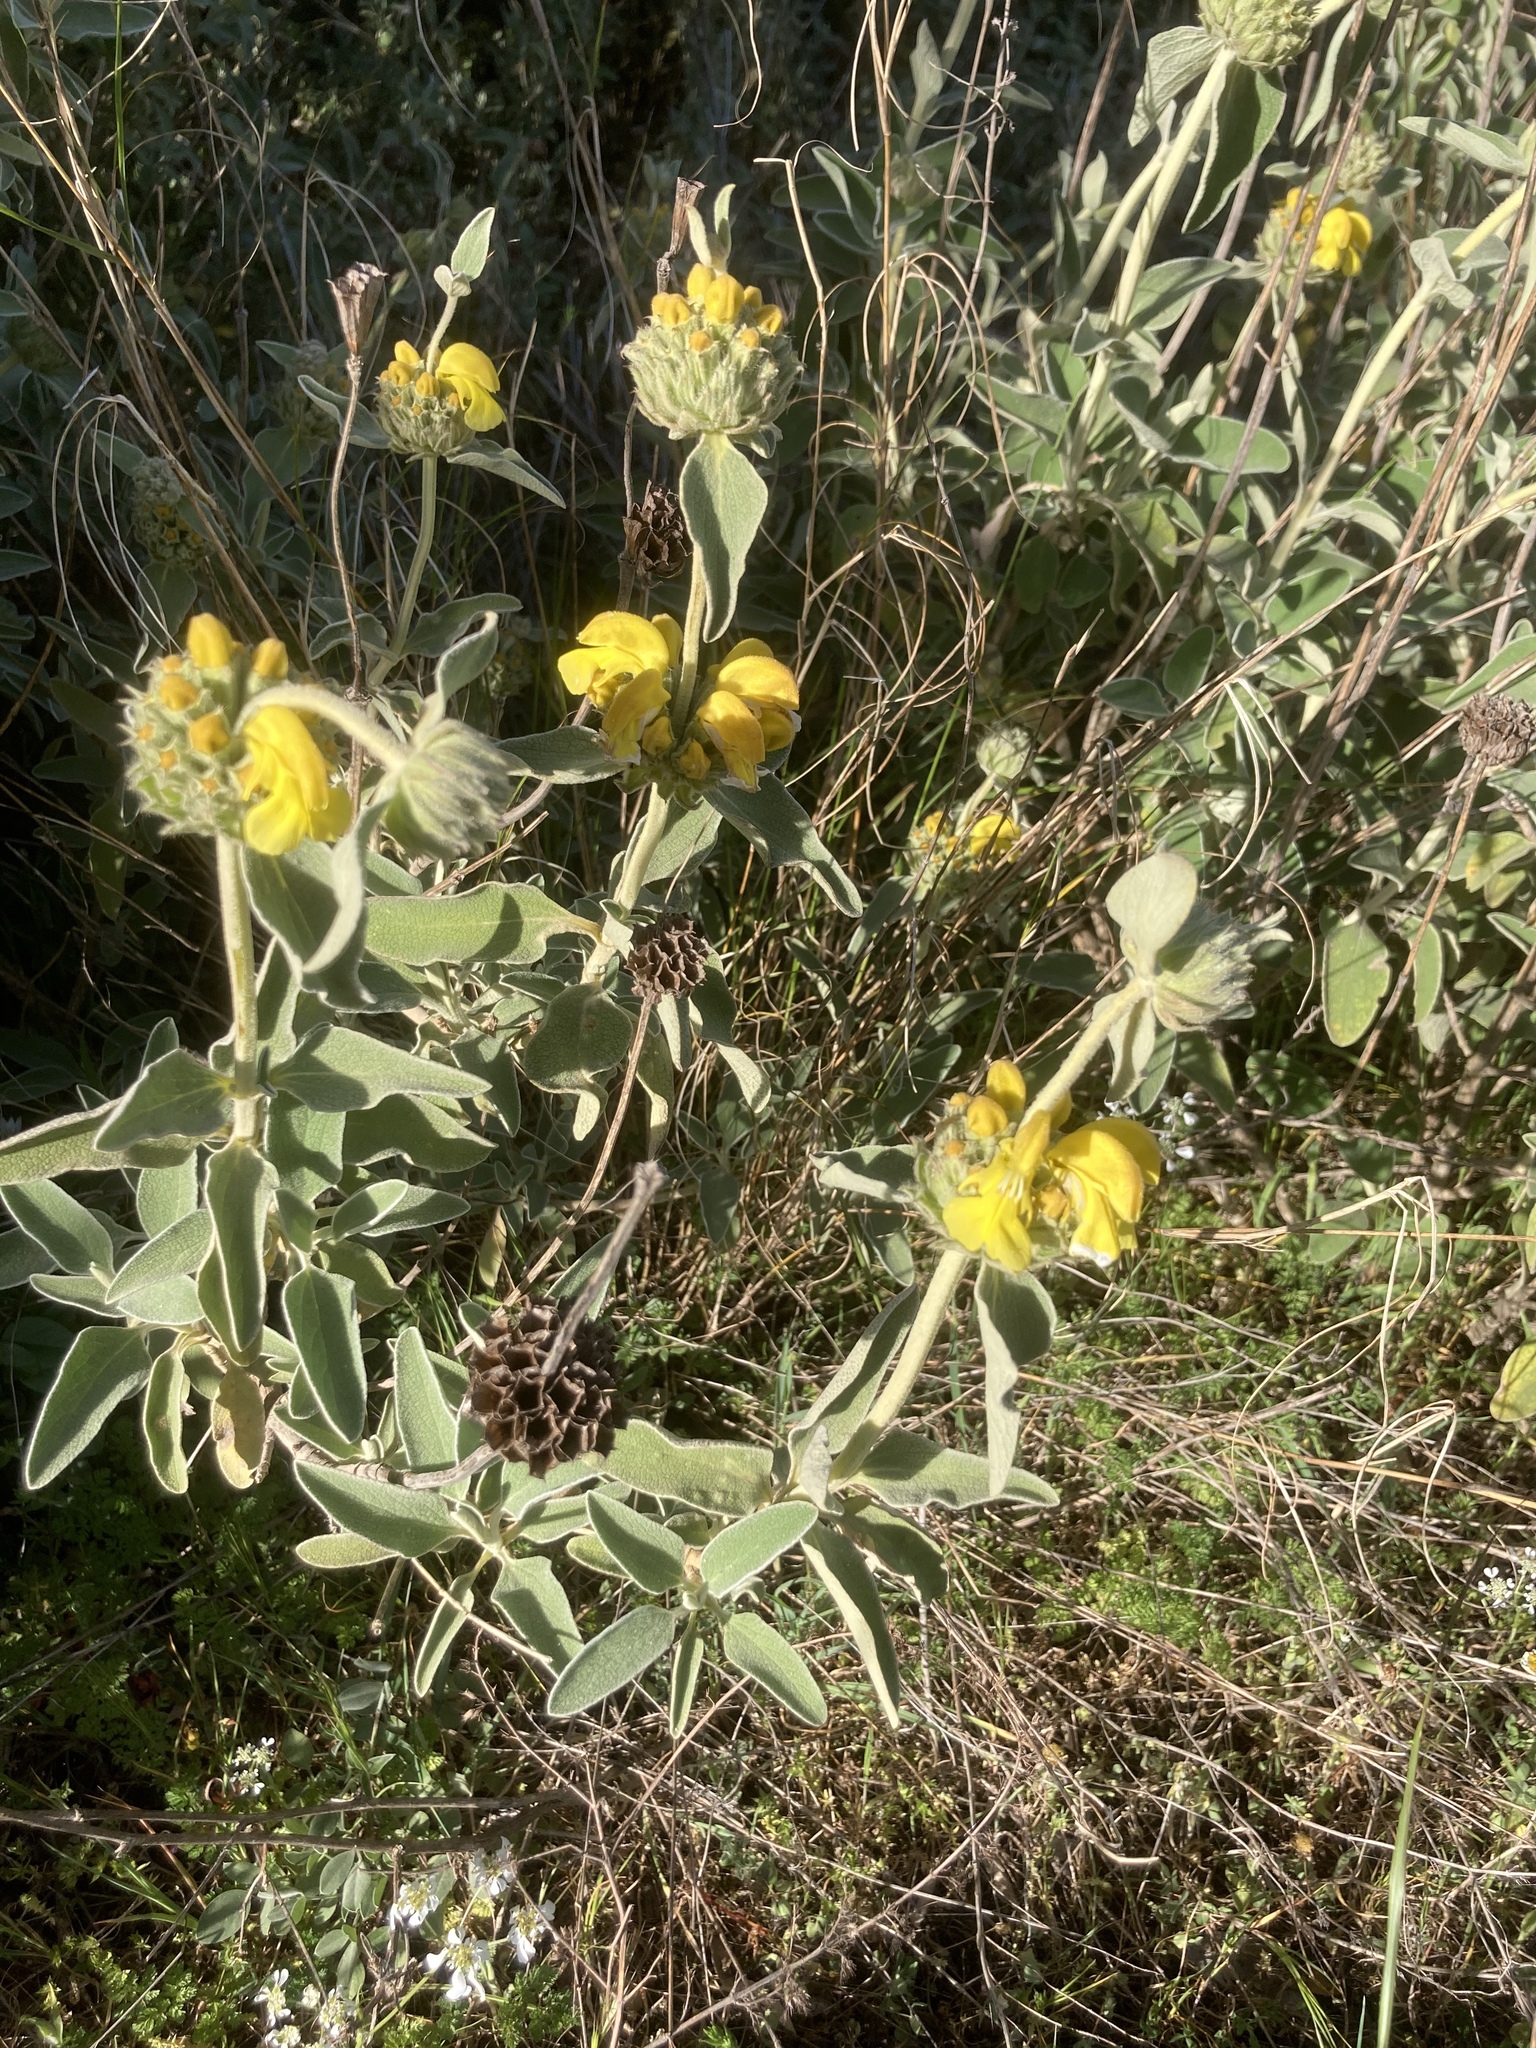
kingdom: Plantae
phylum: Tracheophyta
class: Magnoliopsida
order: Lamiales
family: Lamiaceae
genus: Phlomis
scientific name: Phlomis fruticosa
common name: Jerusalem sage
